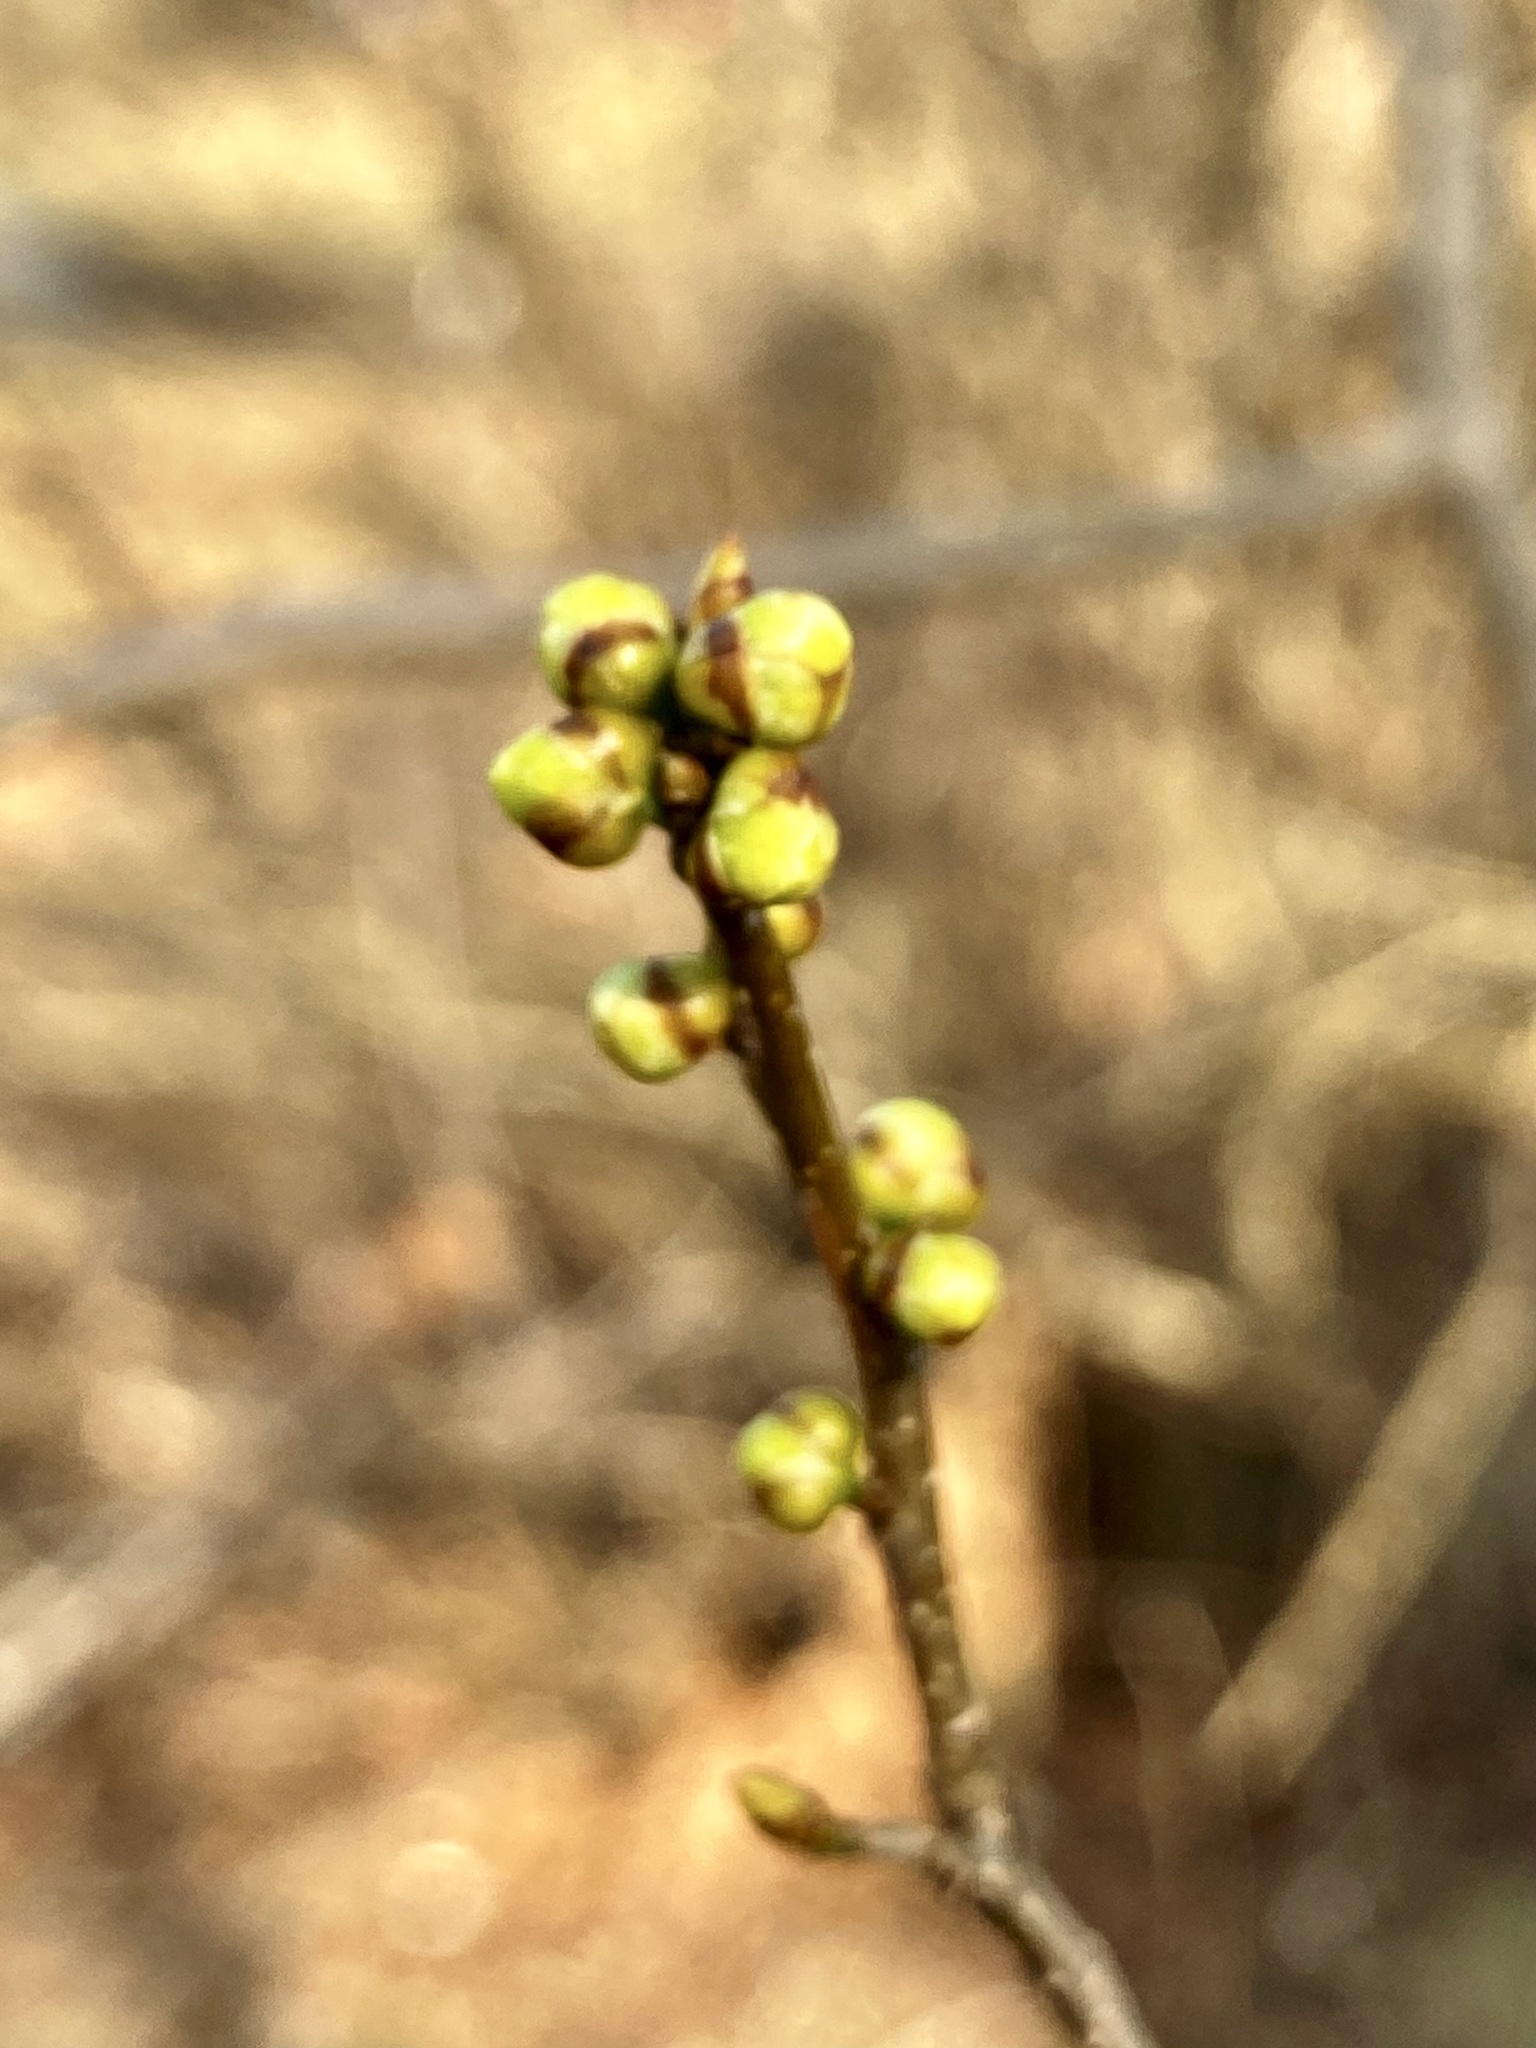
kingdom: Plantae
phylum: Tracheophyta
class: Magnoliopsida
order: Laurales
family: Lauraceae
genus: Lindera
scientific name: Lindera benzoin
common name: Spicebush
